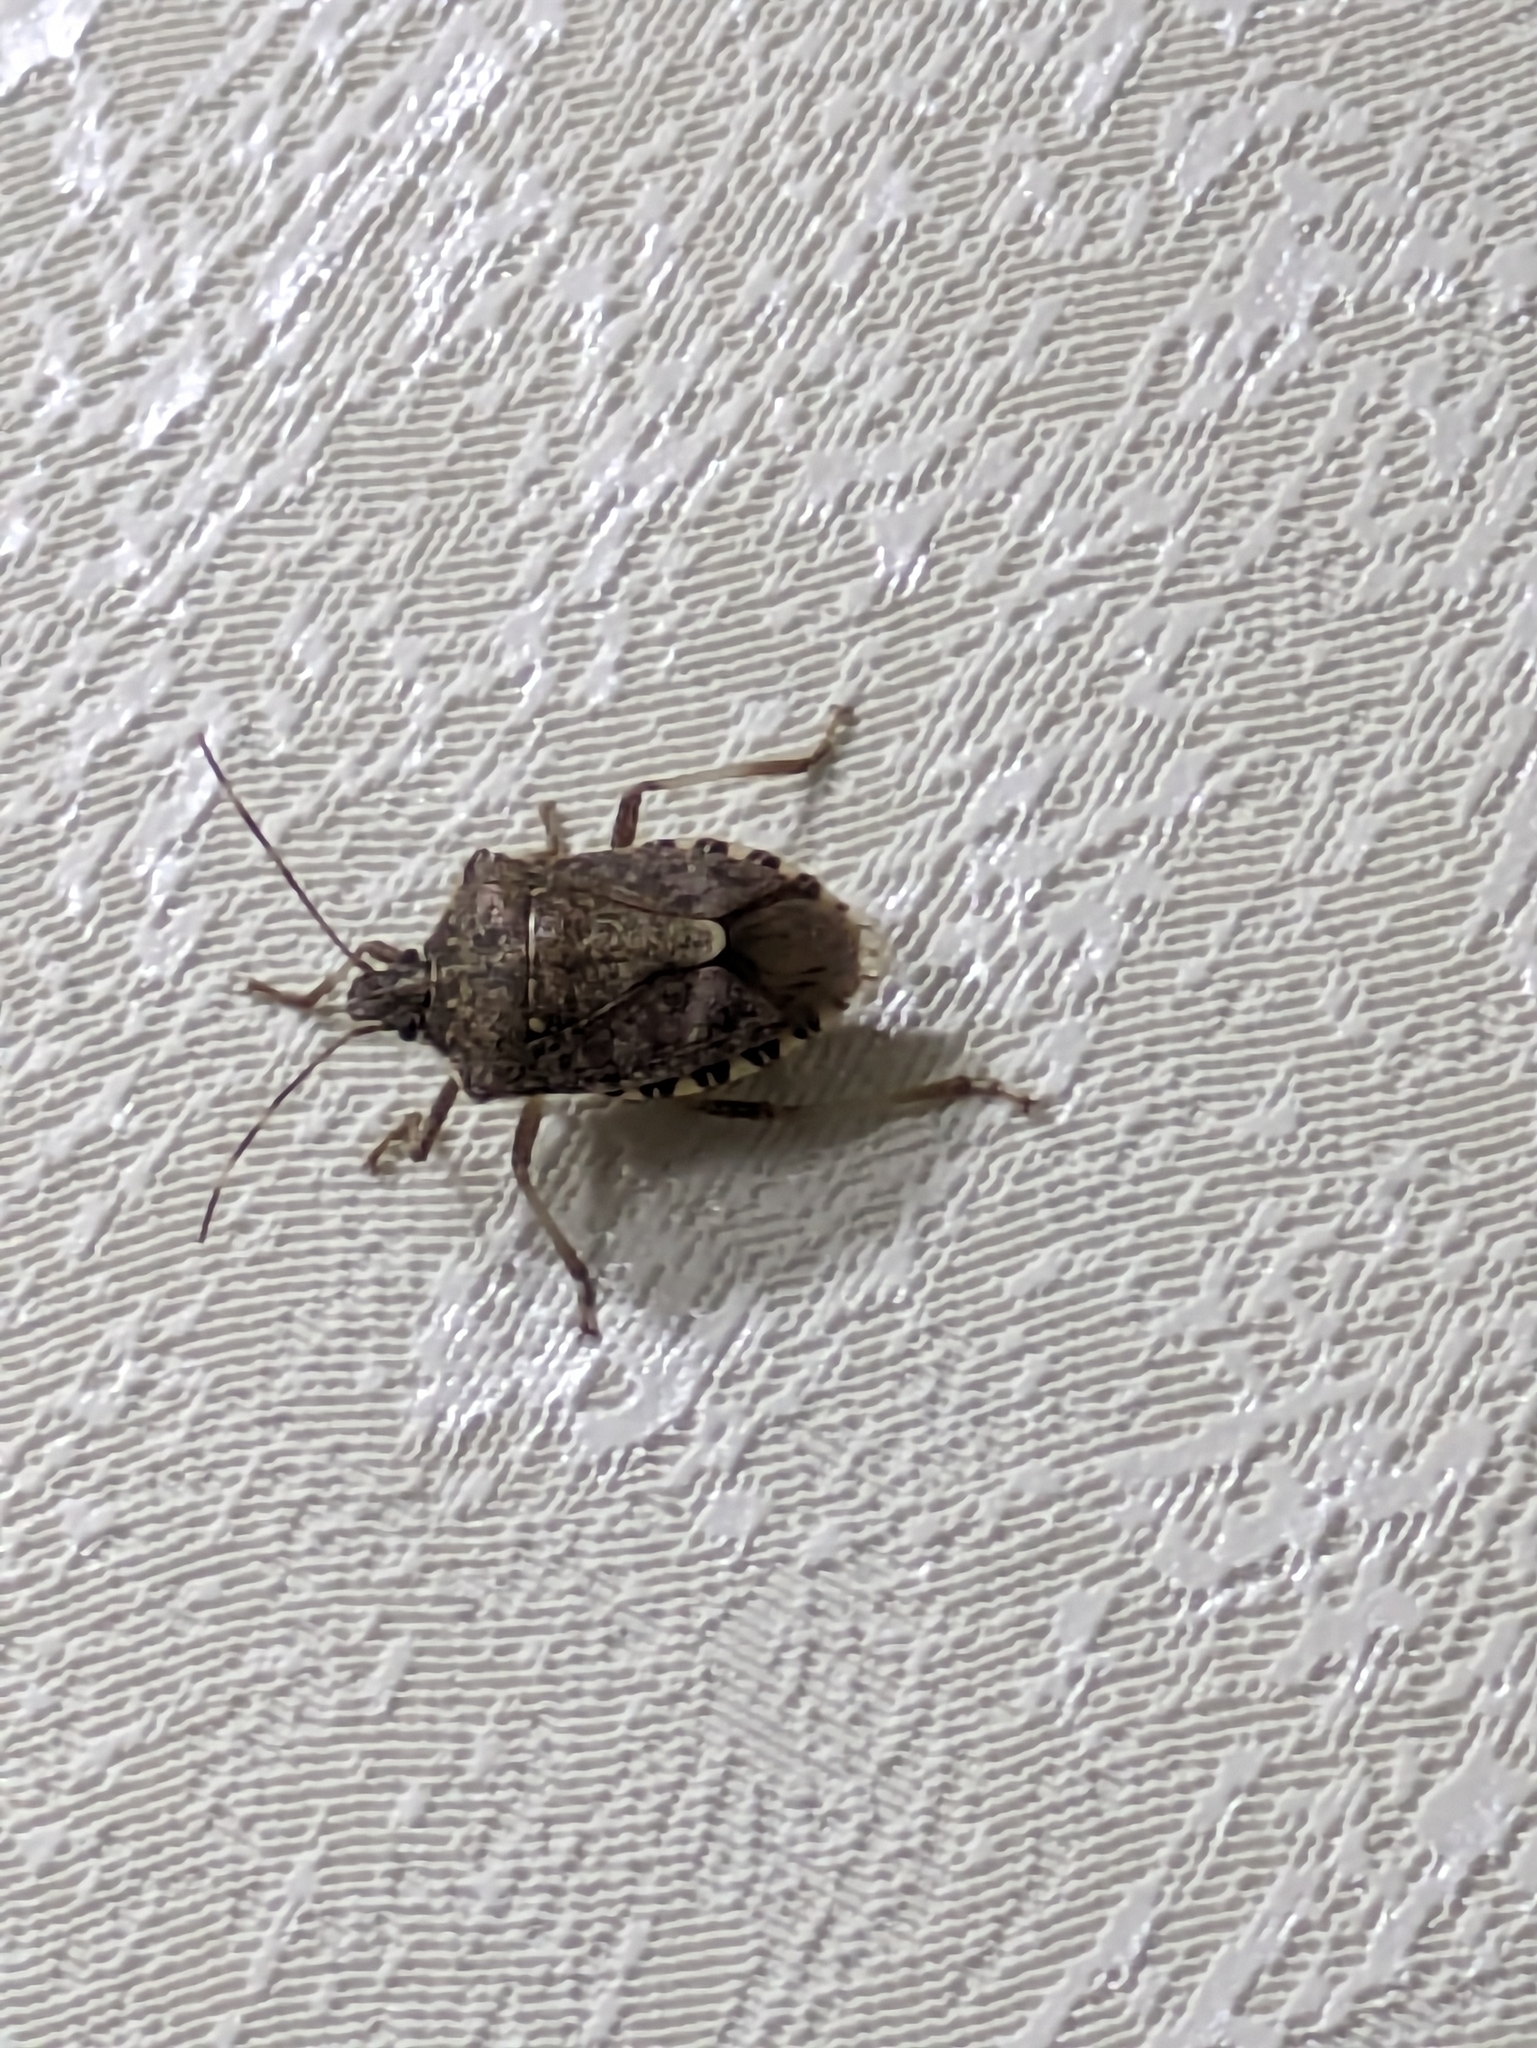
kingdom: Animalia
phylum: Arthropoda
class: Insecta
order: Hemiptera
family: Pentatomidae
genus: Halyomorpha
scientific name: Halyomorpha halys
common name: Brown marmorated stink bug
